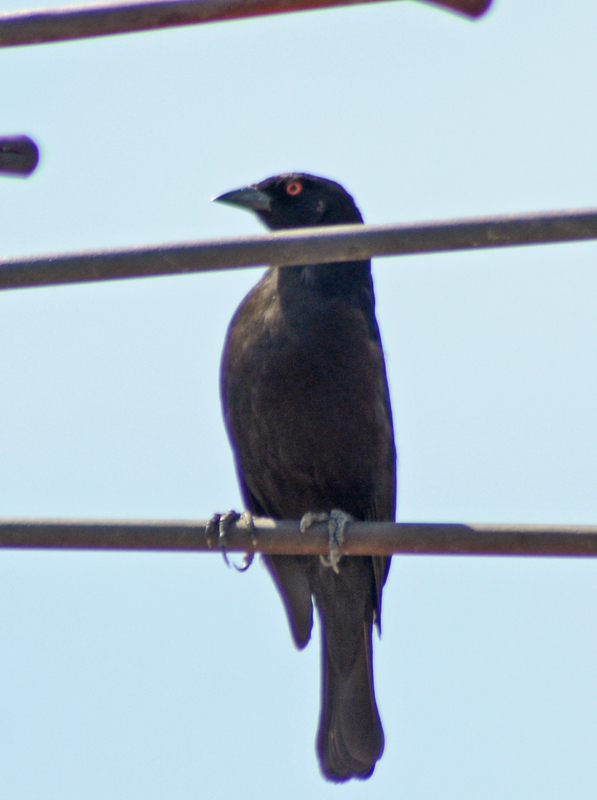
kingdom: Animalia
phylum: Chordata
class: Aves
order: Passeriformes
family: Icteridae
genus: Molothrus
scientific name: Molothrus aeneus
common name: Bronzed cowbird
